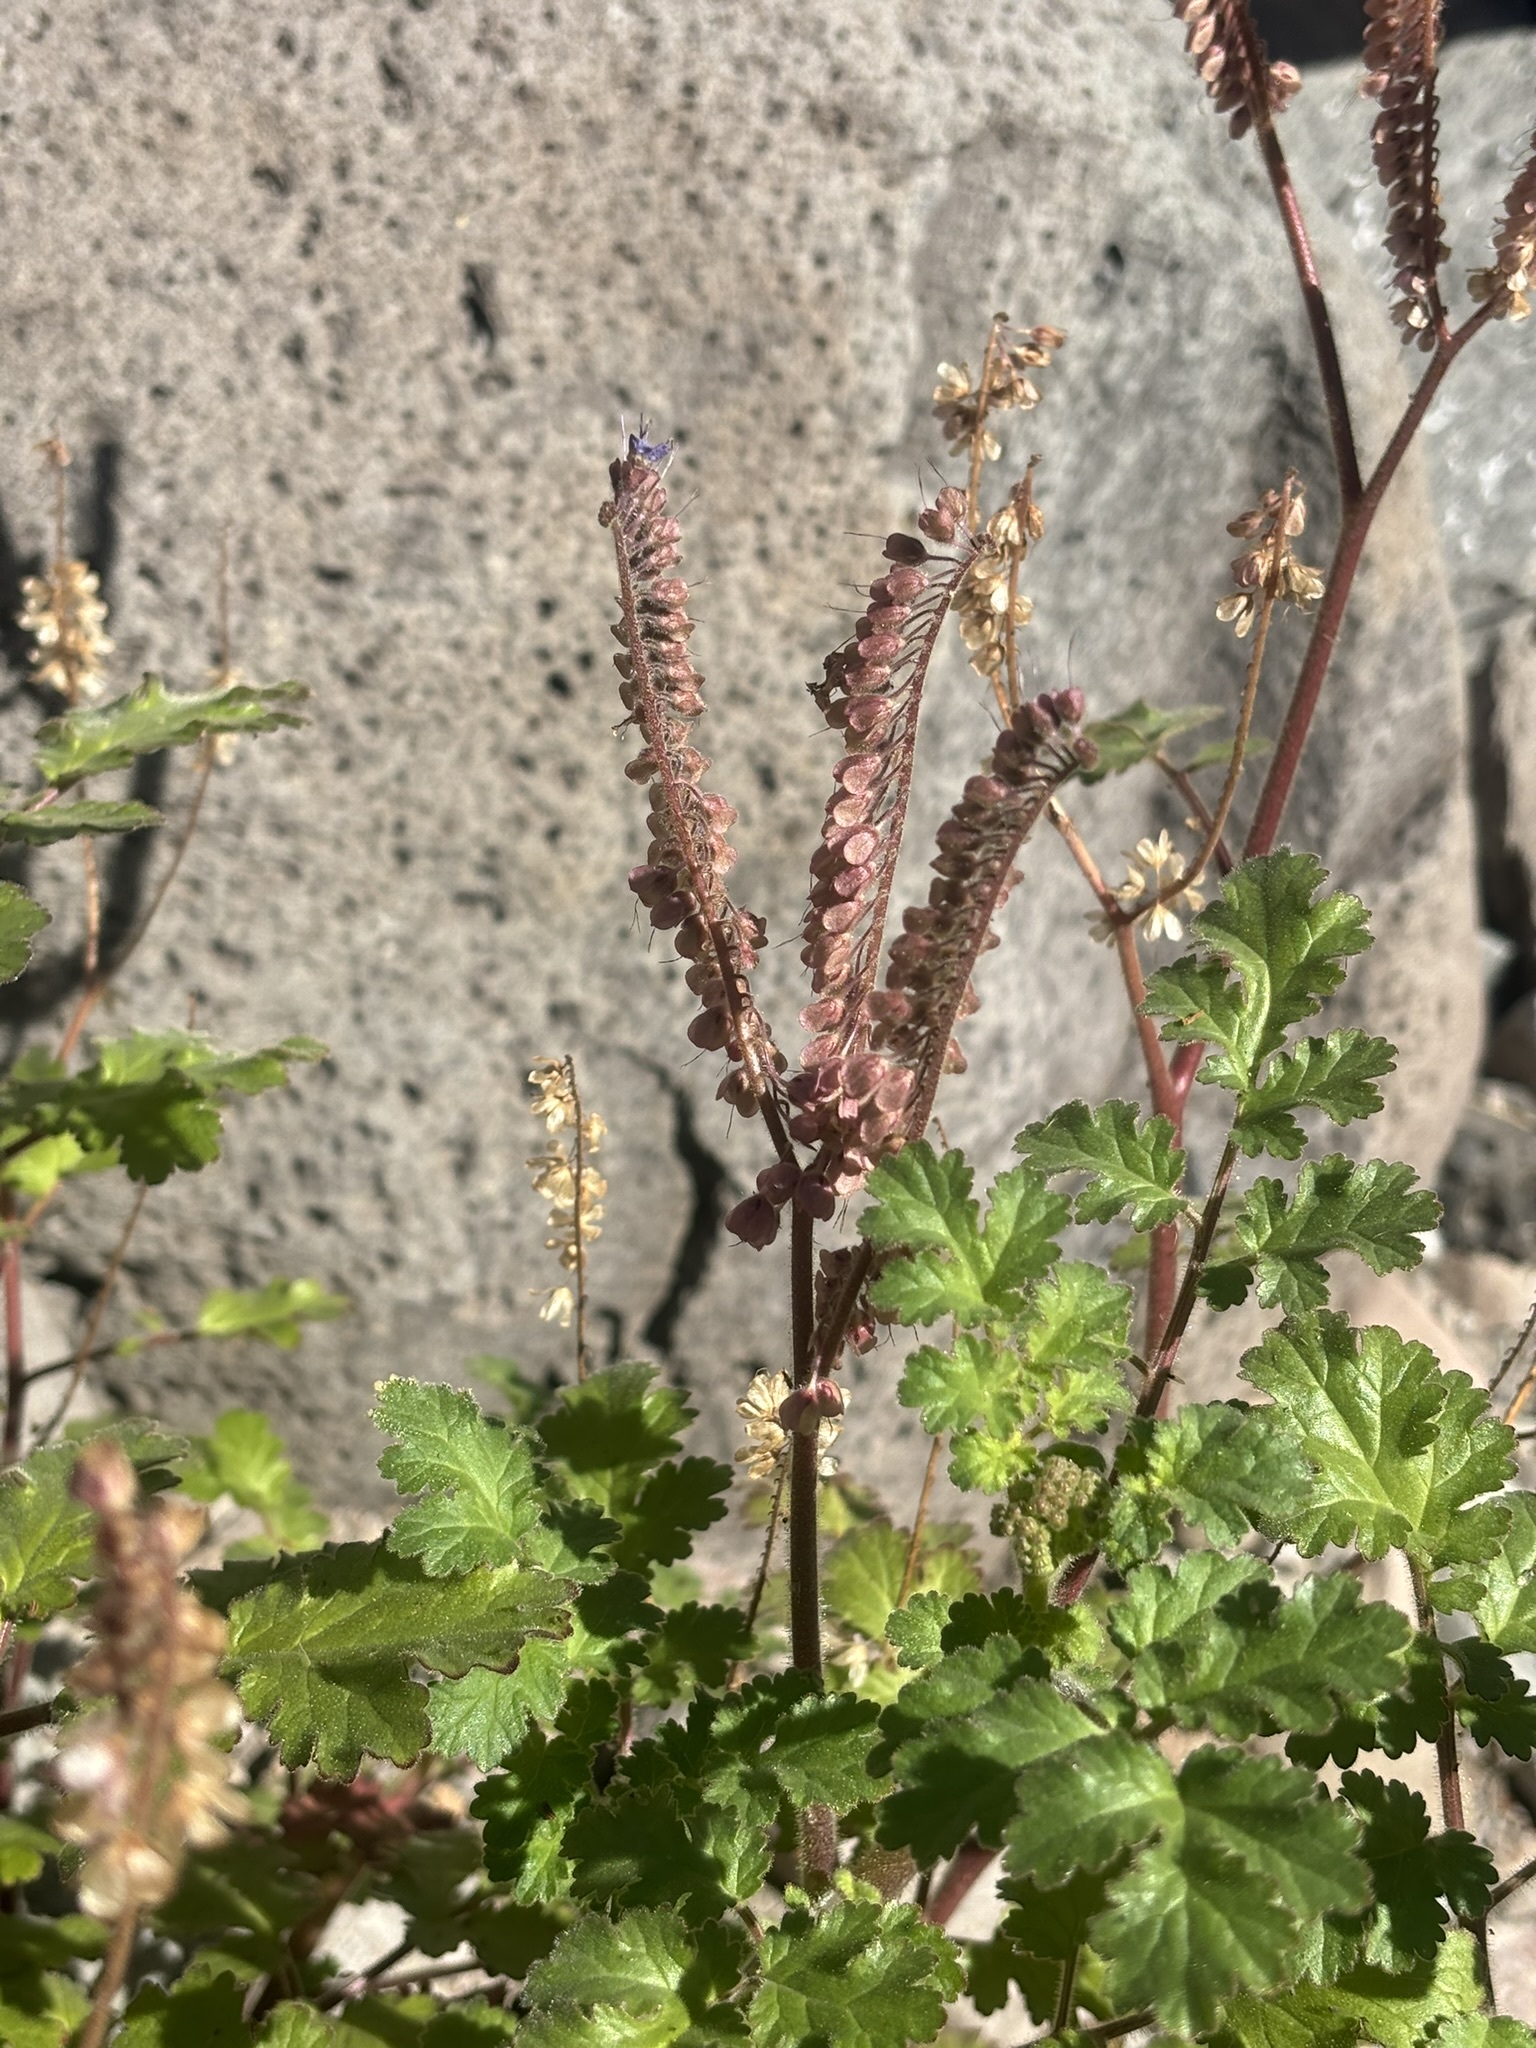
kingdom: Plantae
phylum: Tracheophyta
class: Magnoliopsida
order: Boraginales
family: Hydrophyllaceae
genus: Phacelia
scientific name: Phacelia scariosa
